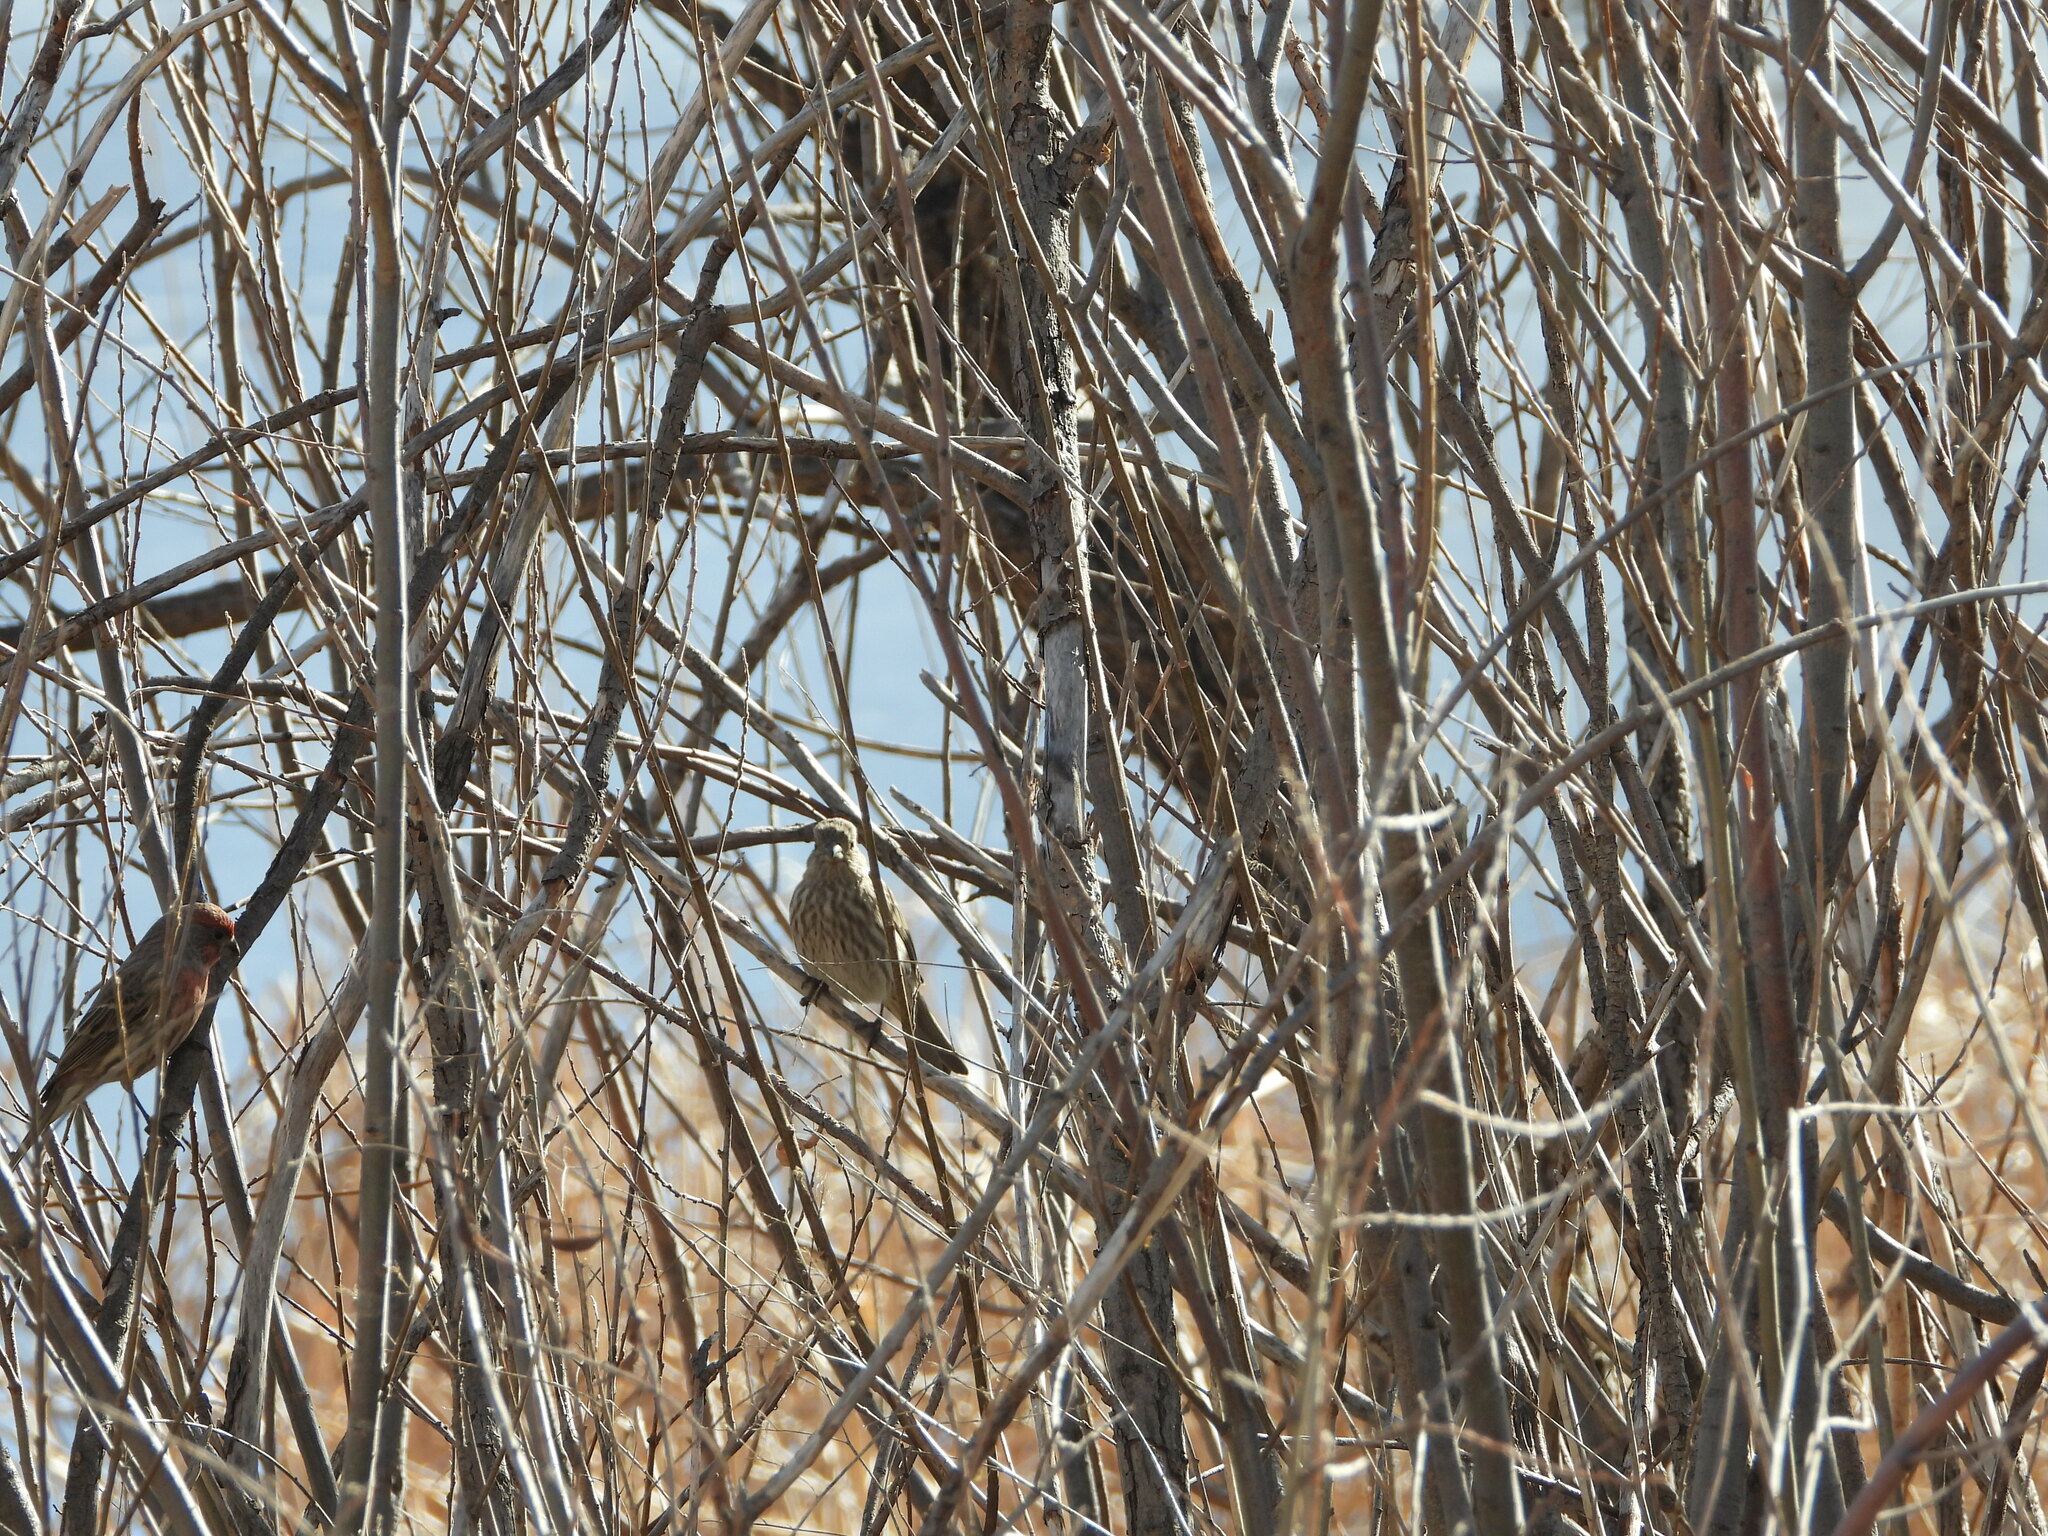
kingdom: Animalia
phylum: Chordata
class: Aves
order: Passeriformes
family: Fringillidae
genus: Haemorhous
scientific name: Haemorhous mexicanus
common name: House finch
